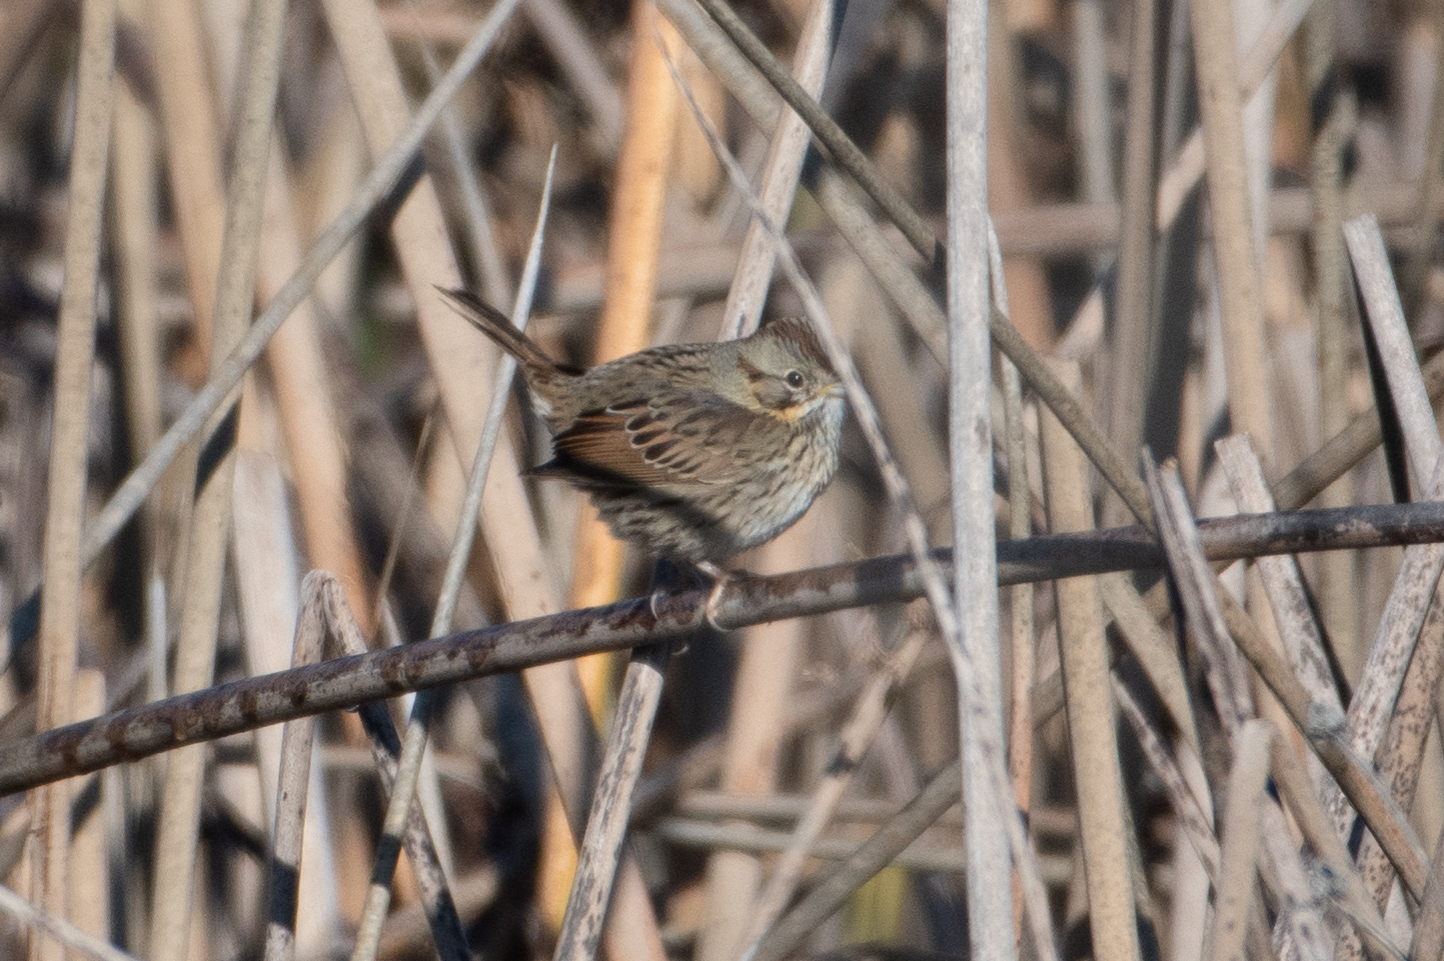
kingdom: Animalia
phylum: Chordata
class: Aves
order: Passeriformes
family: Passerellidae
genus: Melospiza
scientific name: Melospiza lincolnii
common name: Lincoln's sparrow
